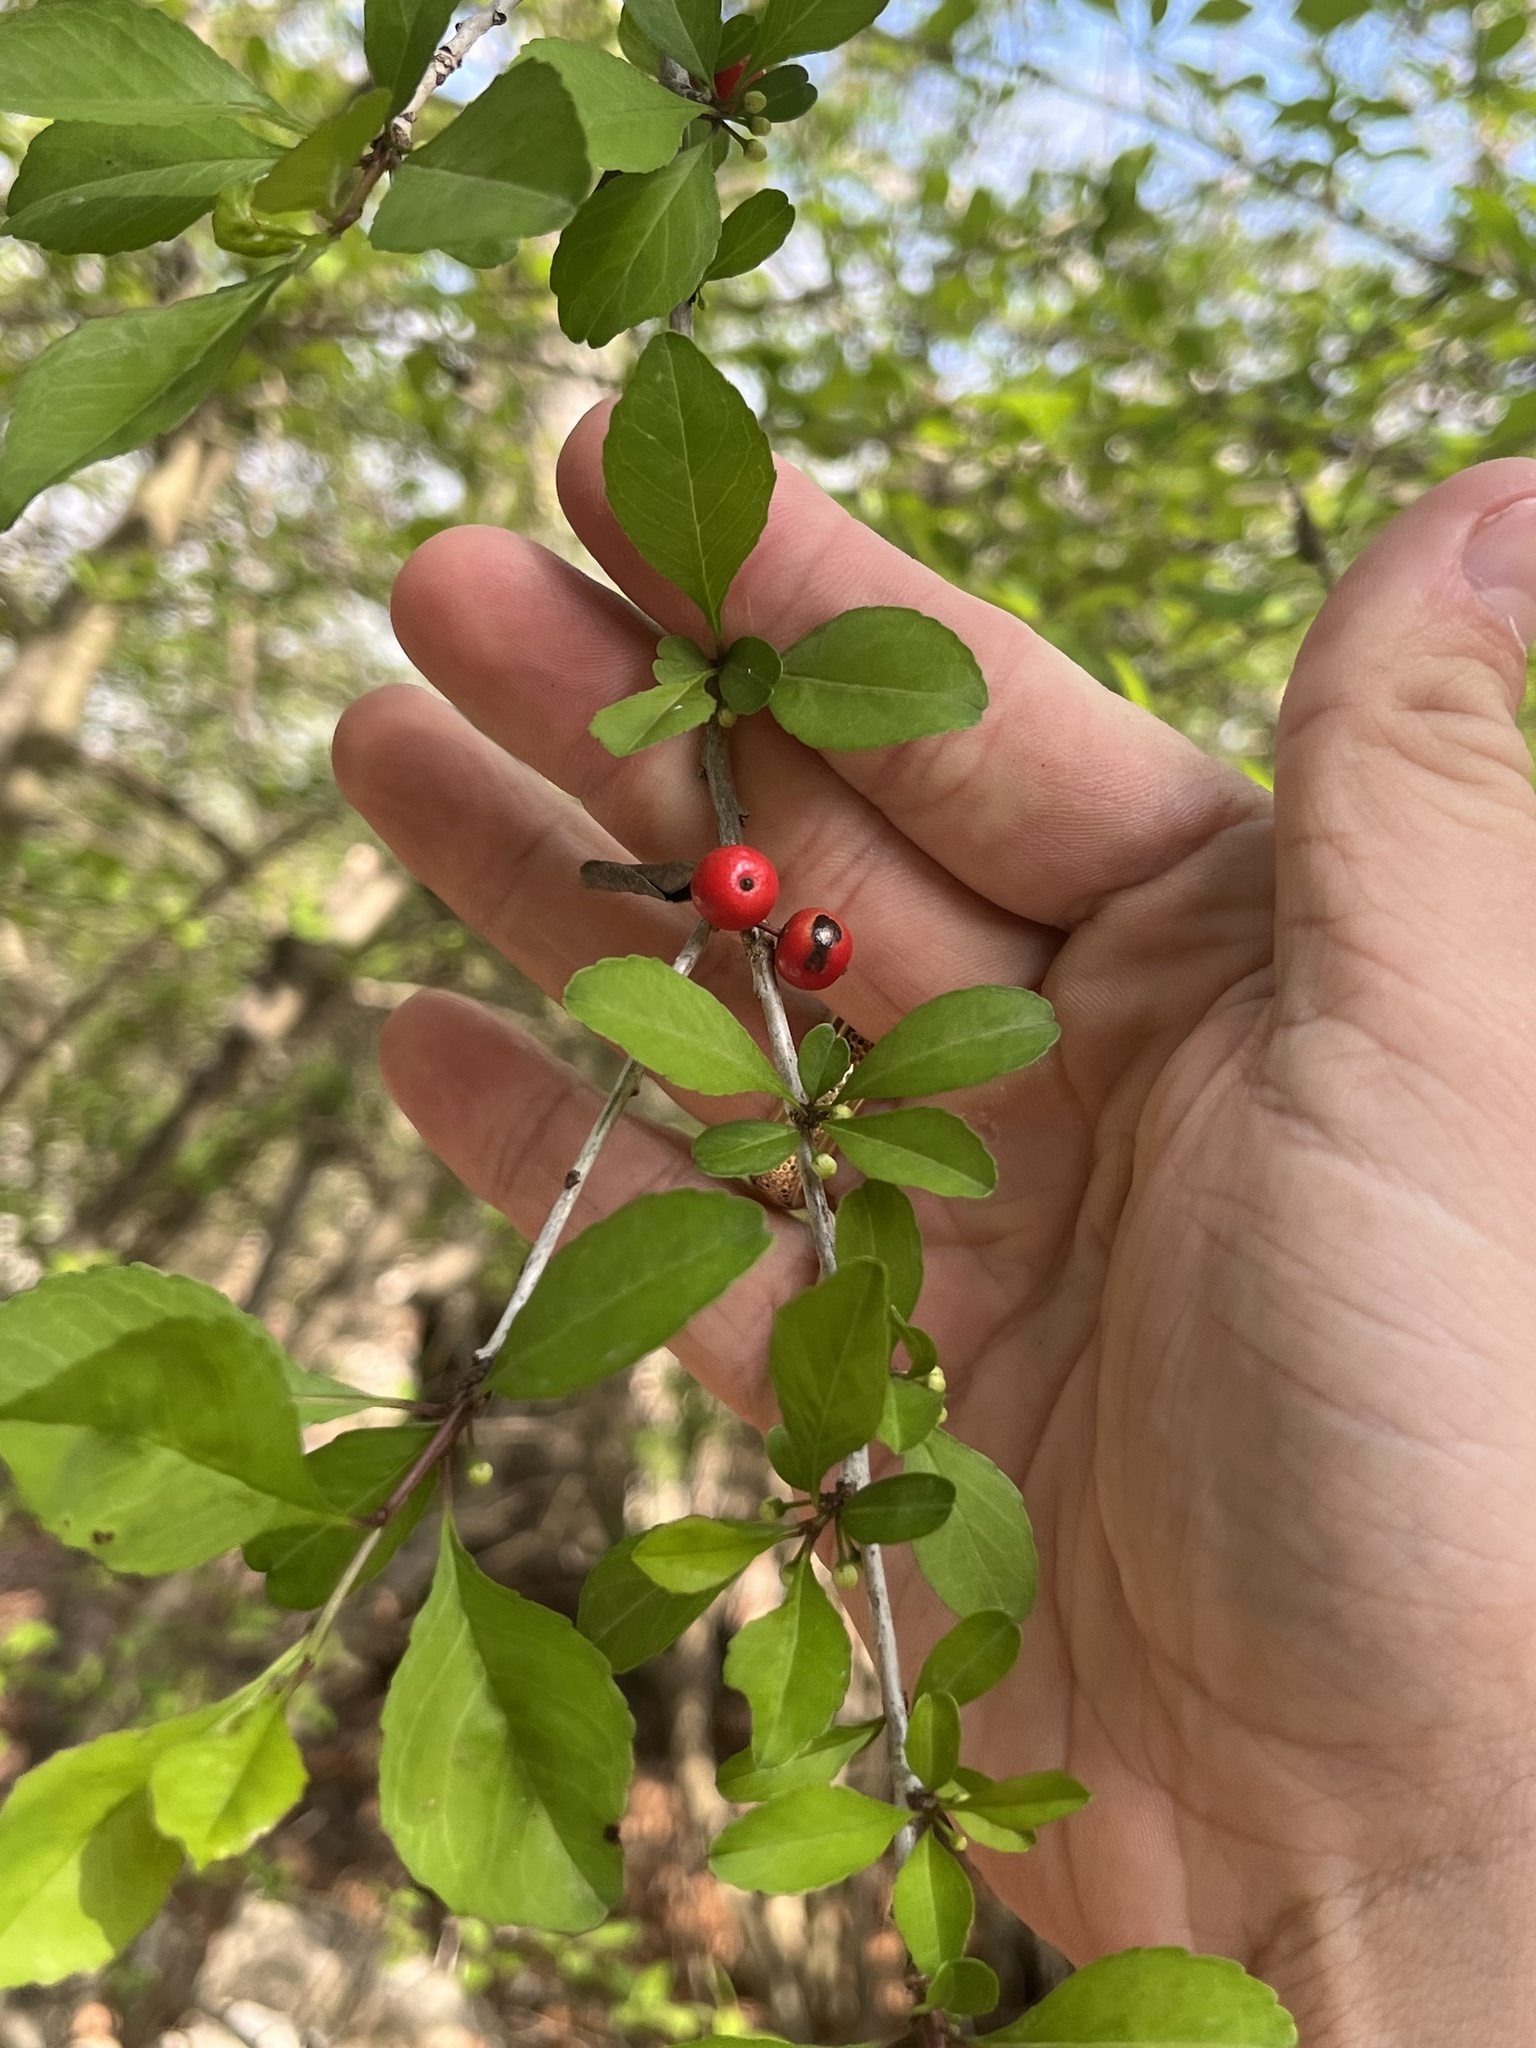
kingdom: Plantae
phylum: Tracheophyta
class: Magnoliopsida
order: Aquifoliales
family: Aquifoliaceae
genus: Ilex
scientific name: Ilex decidua
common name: Possum-haw
